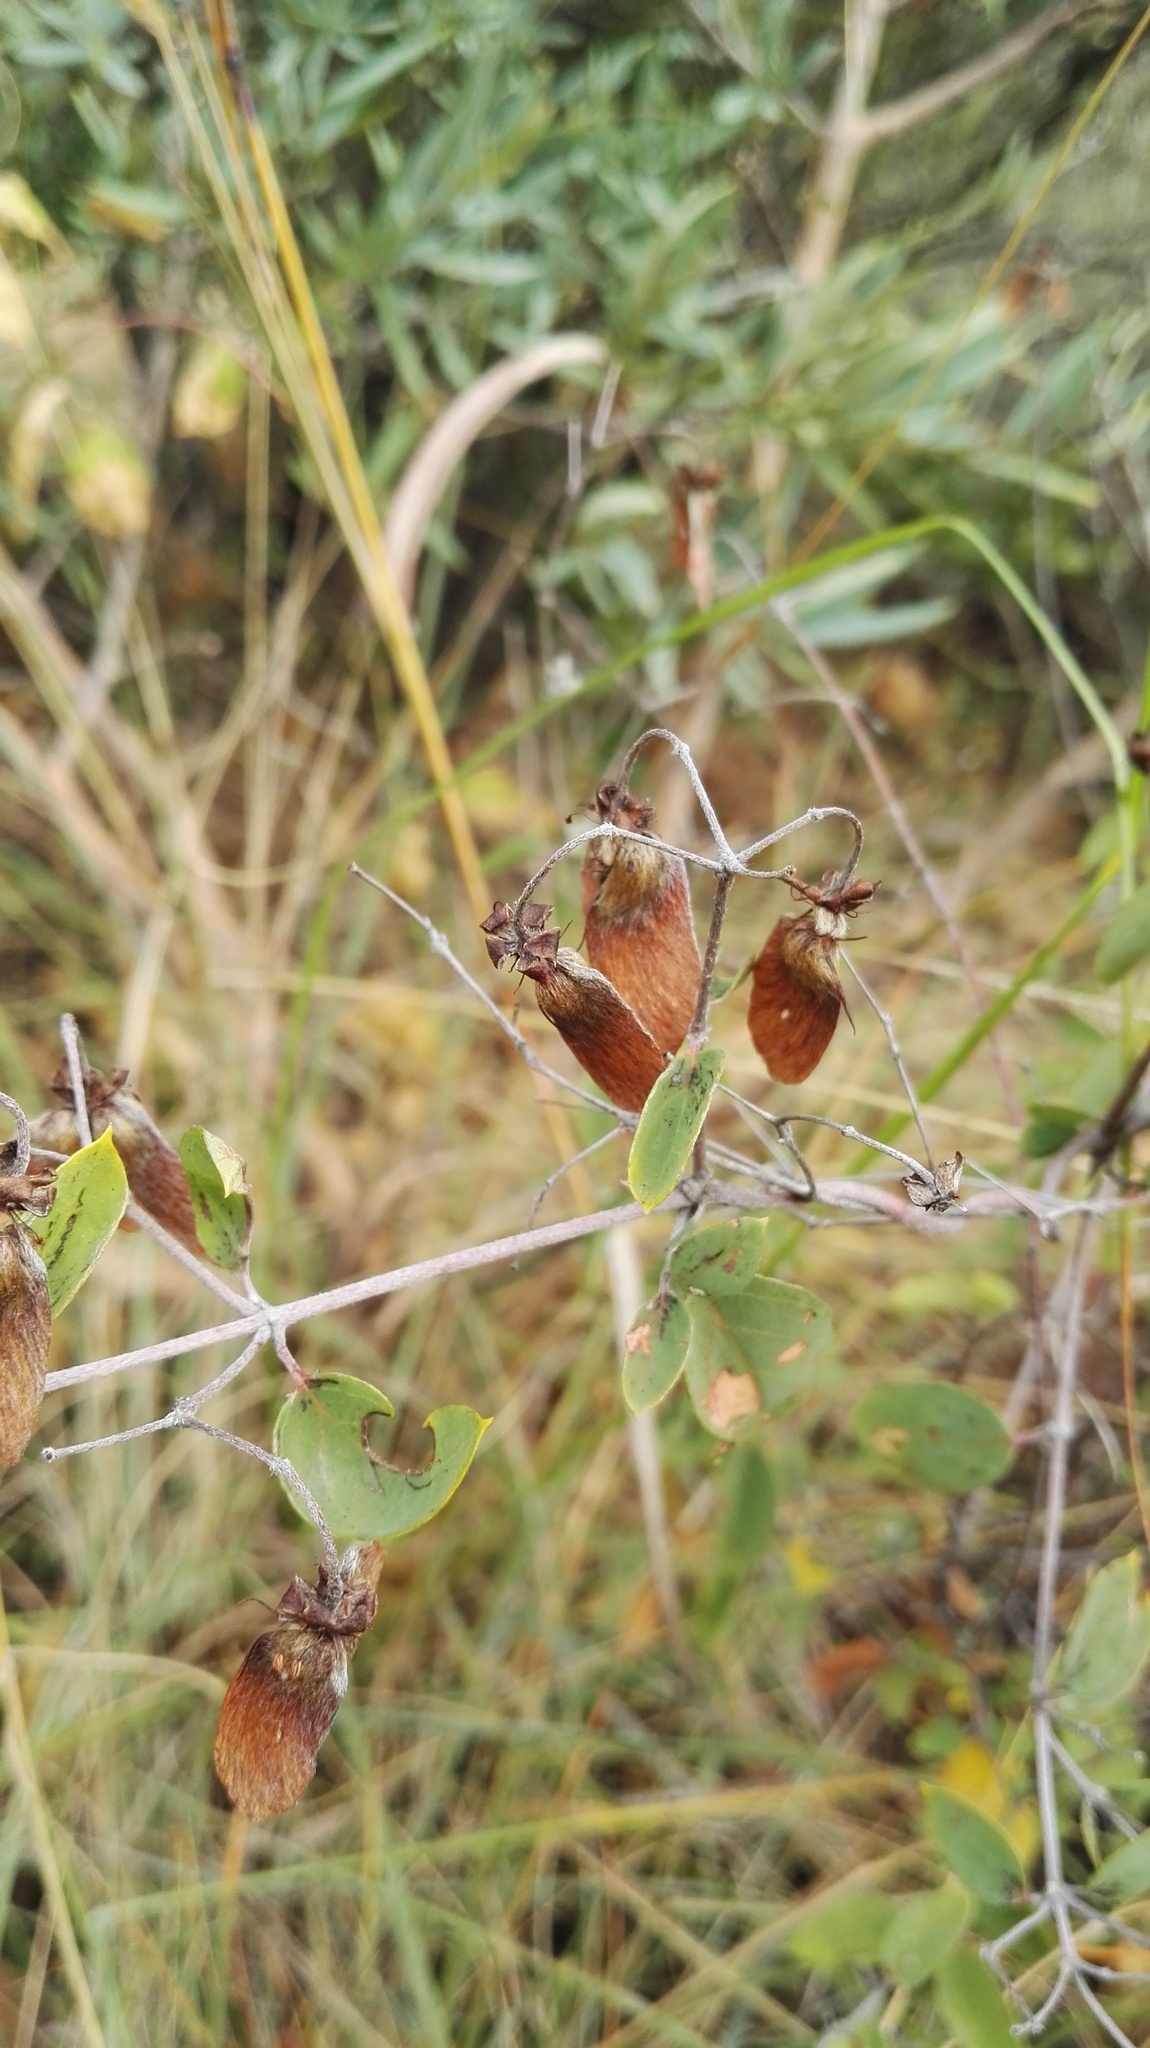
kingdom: Plantae
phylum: Tracheophyta
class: Magnoliopsida
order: Malpighiales
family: Malpighiaceae
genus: Sphedamnocarpus
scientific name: Sphedamnocarpus pruriens
